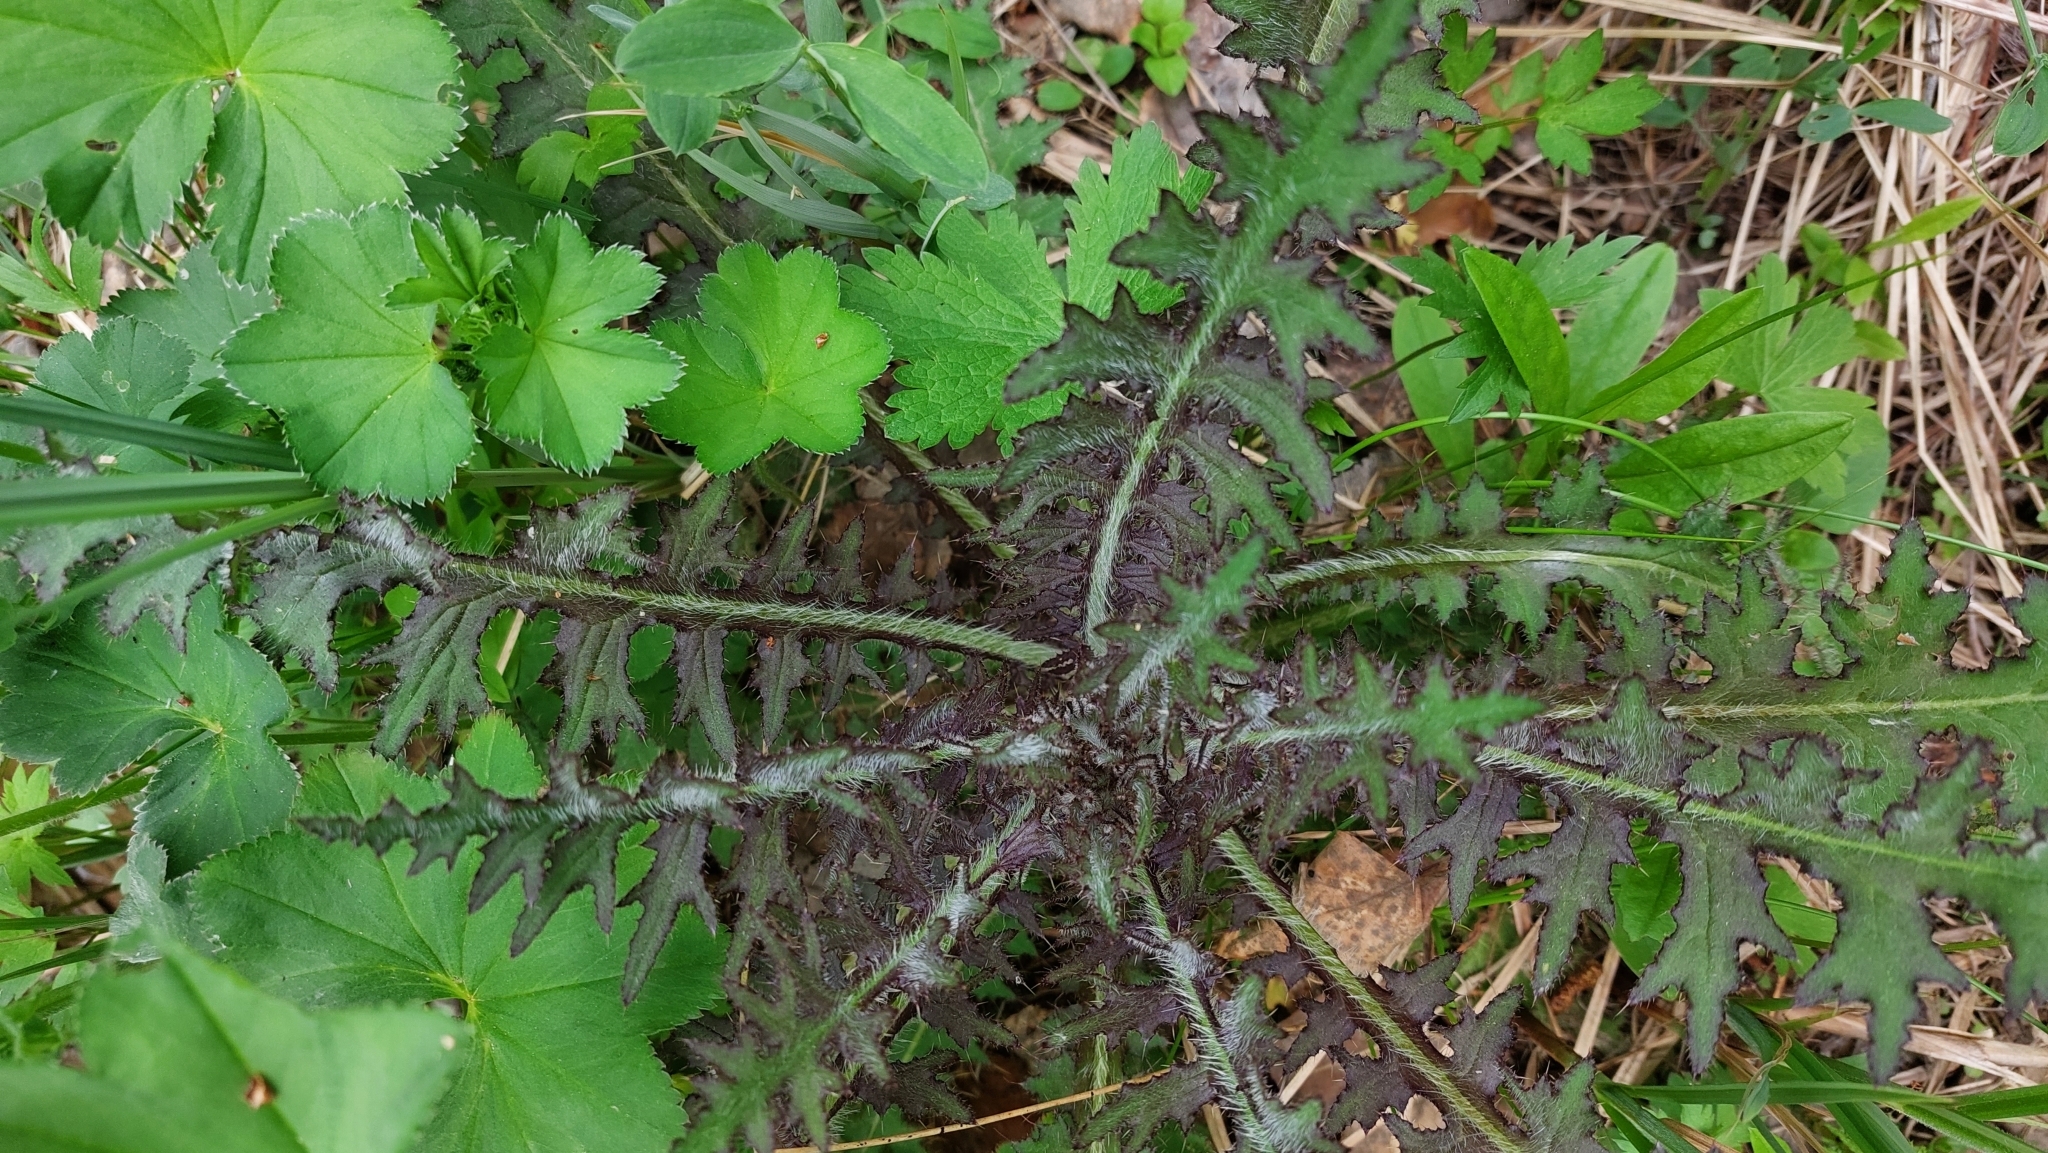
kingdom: Plantae
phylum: Tracheophyta
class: Magnoliopsida
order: Asterales
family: Asteraceae
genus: Cirsium
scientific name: Cirsium palustre
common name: Marsh thistle
